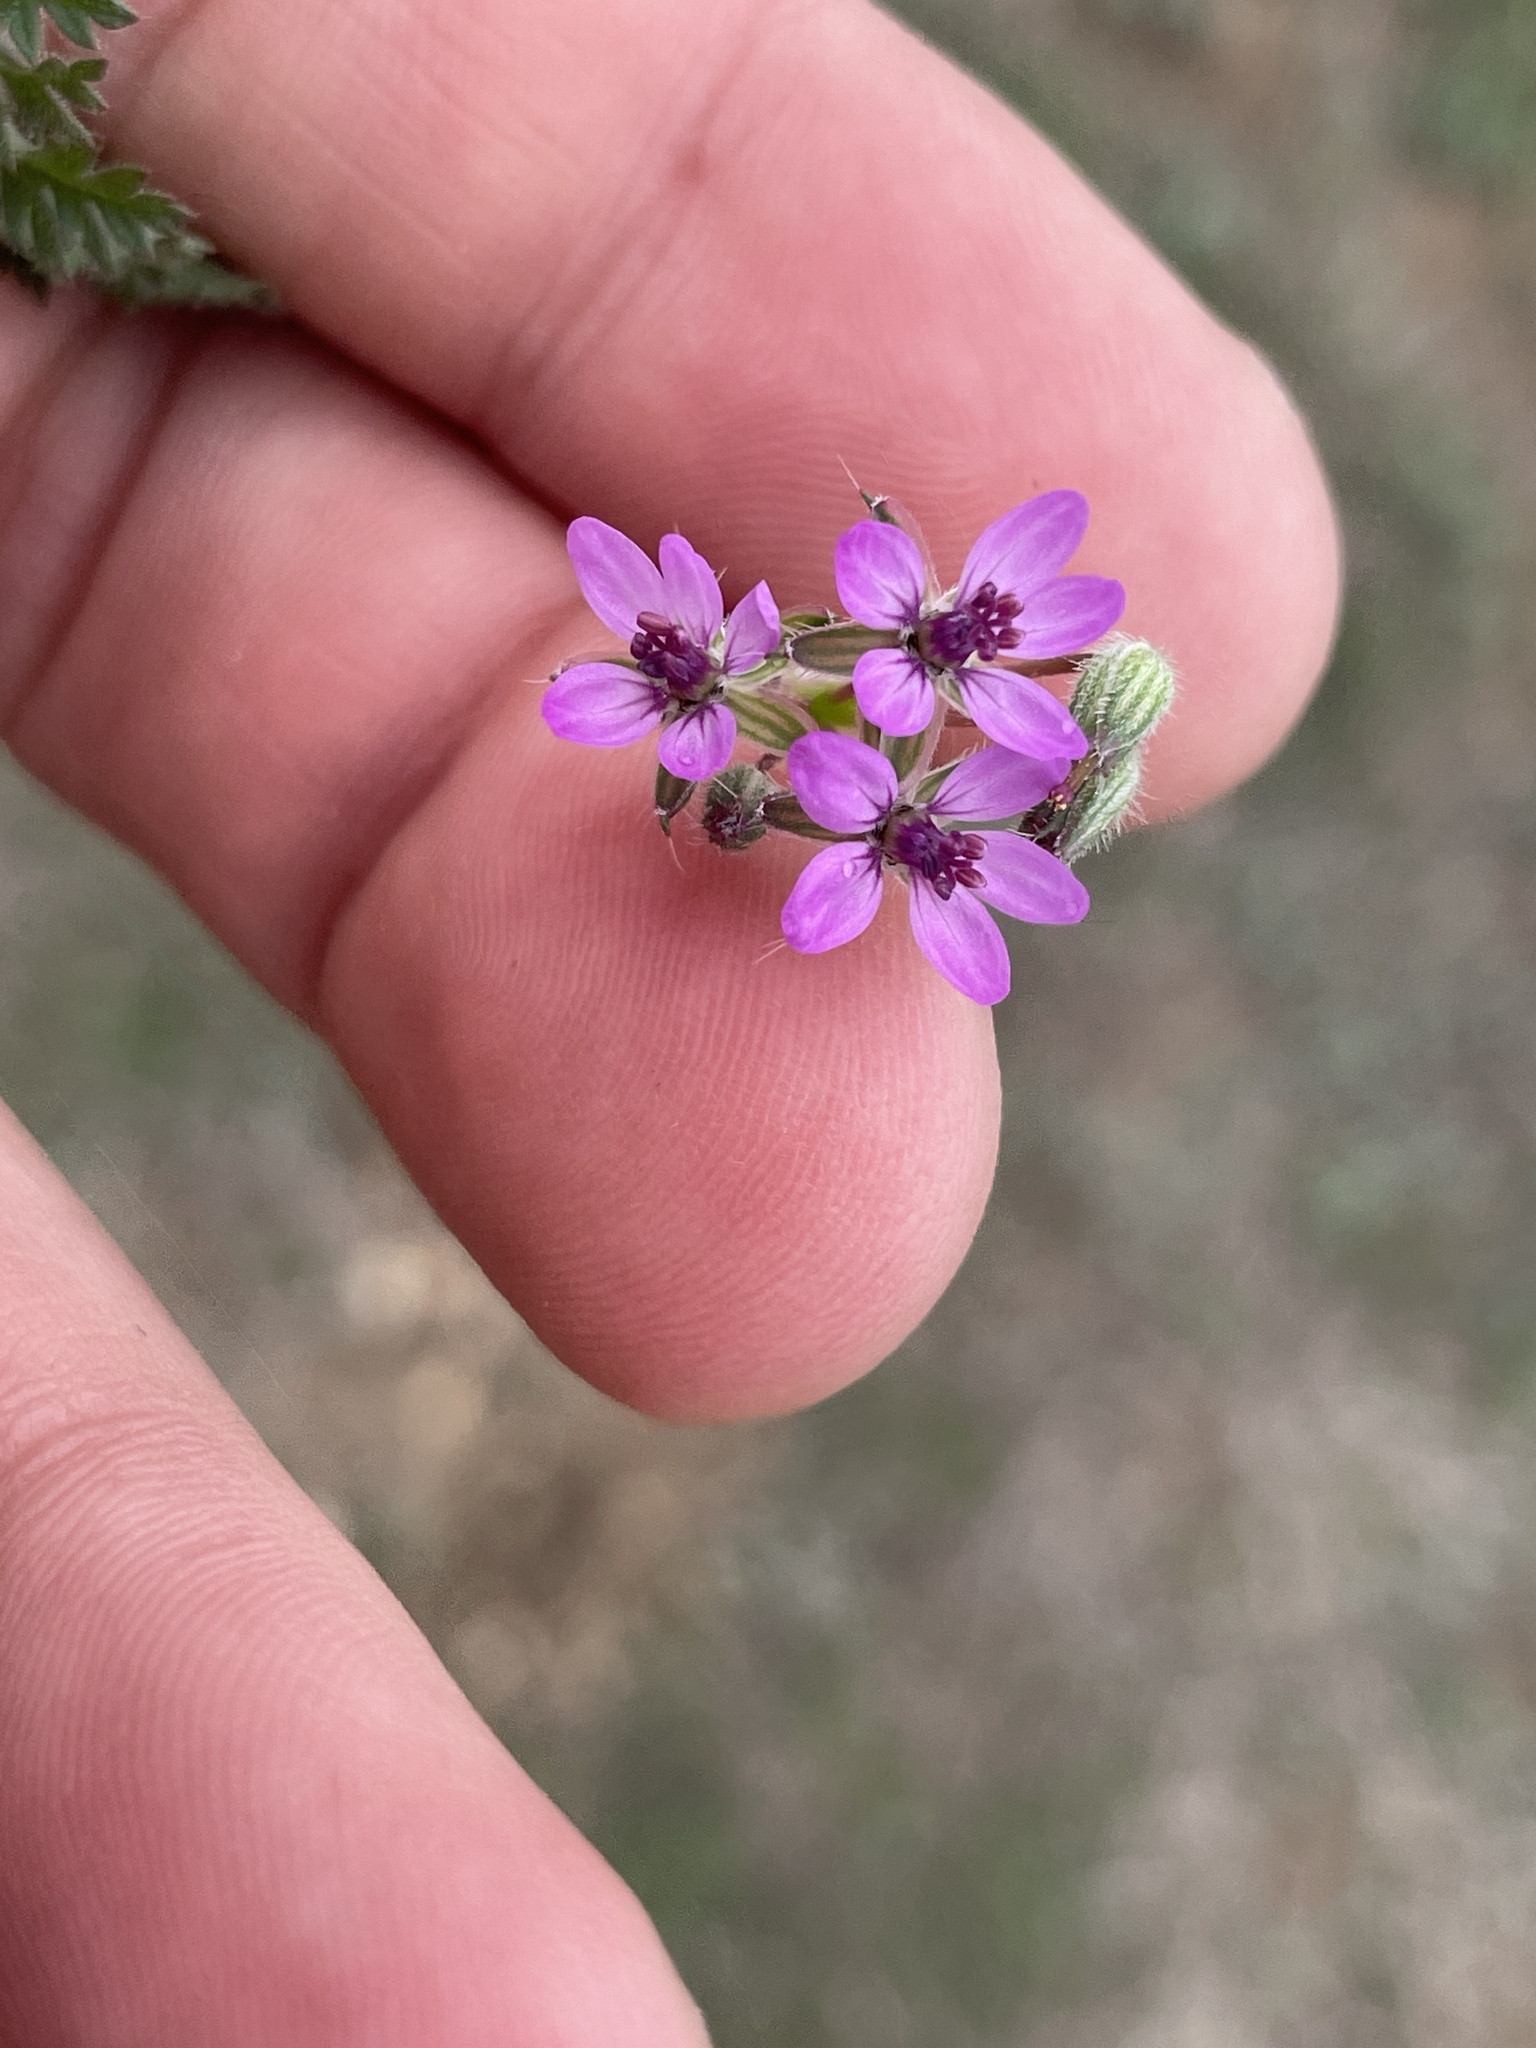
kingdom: Plantae
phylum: Tracheophyta
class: Magnoliopsida
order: Geraniales
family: Geraniaceae
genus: Erodium
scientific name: Erodium cicutarium
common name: Common stork's-bill
